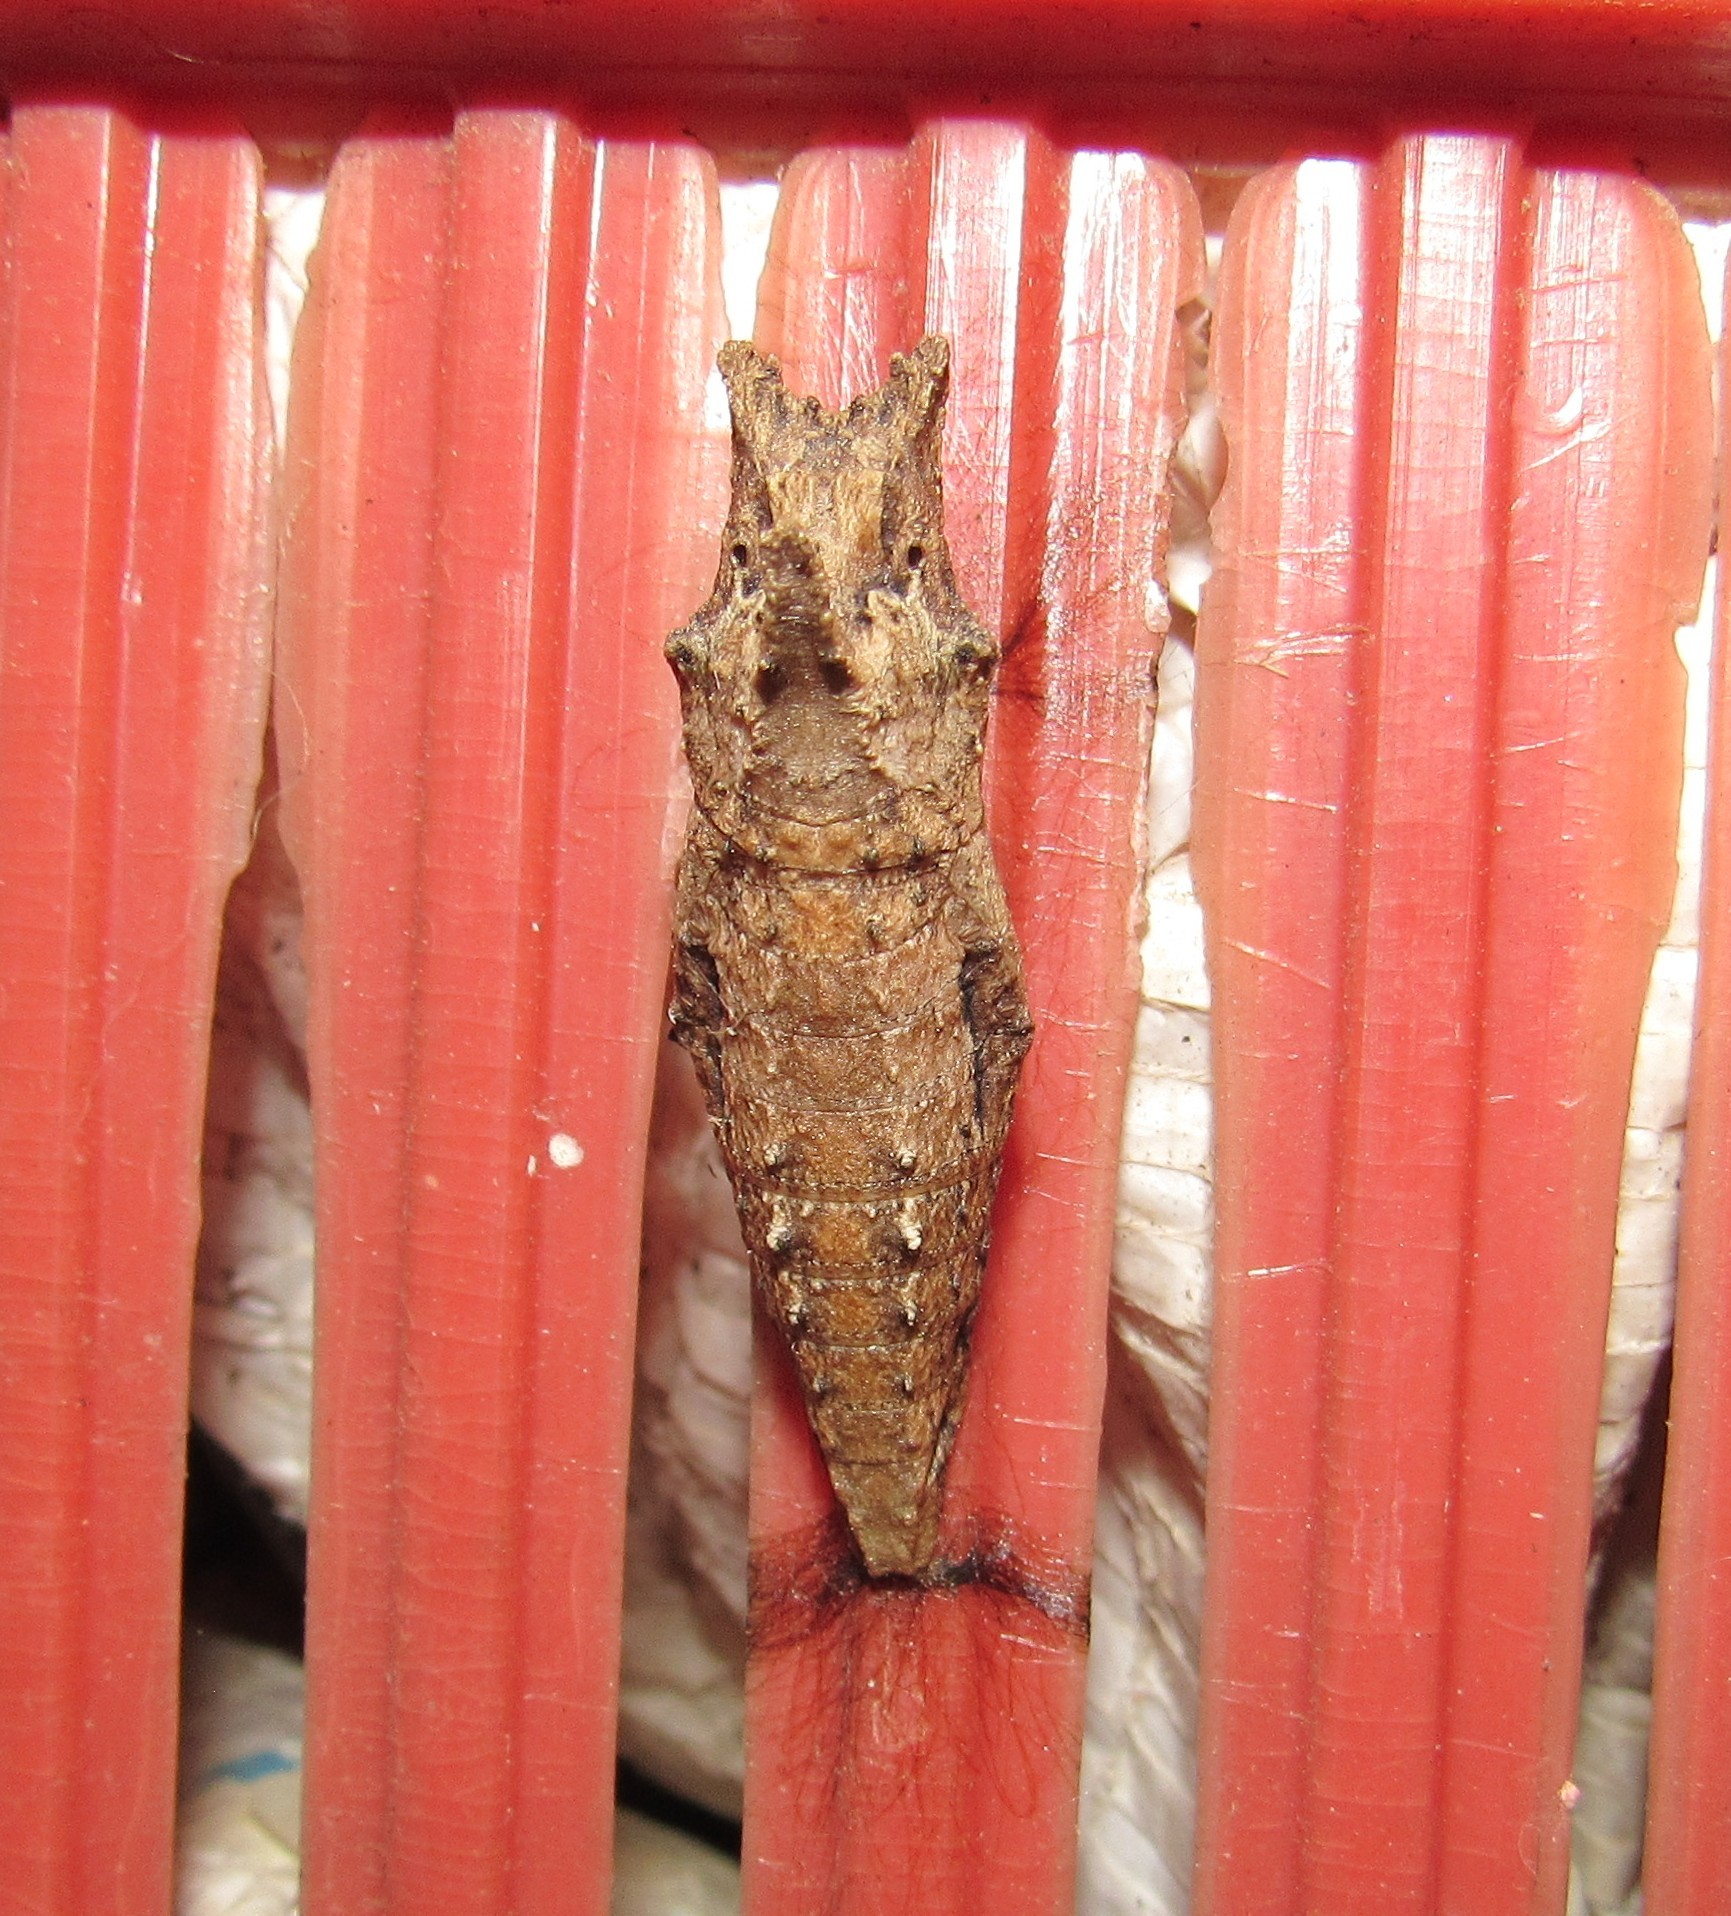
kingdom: Animalia
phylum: Arthropoda
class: Insecta
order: Lepidoptera
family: Papilionidae
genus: Papilio
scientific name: Papilio astyalus
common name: Astyalus swallowtail
